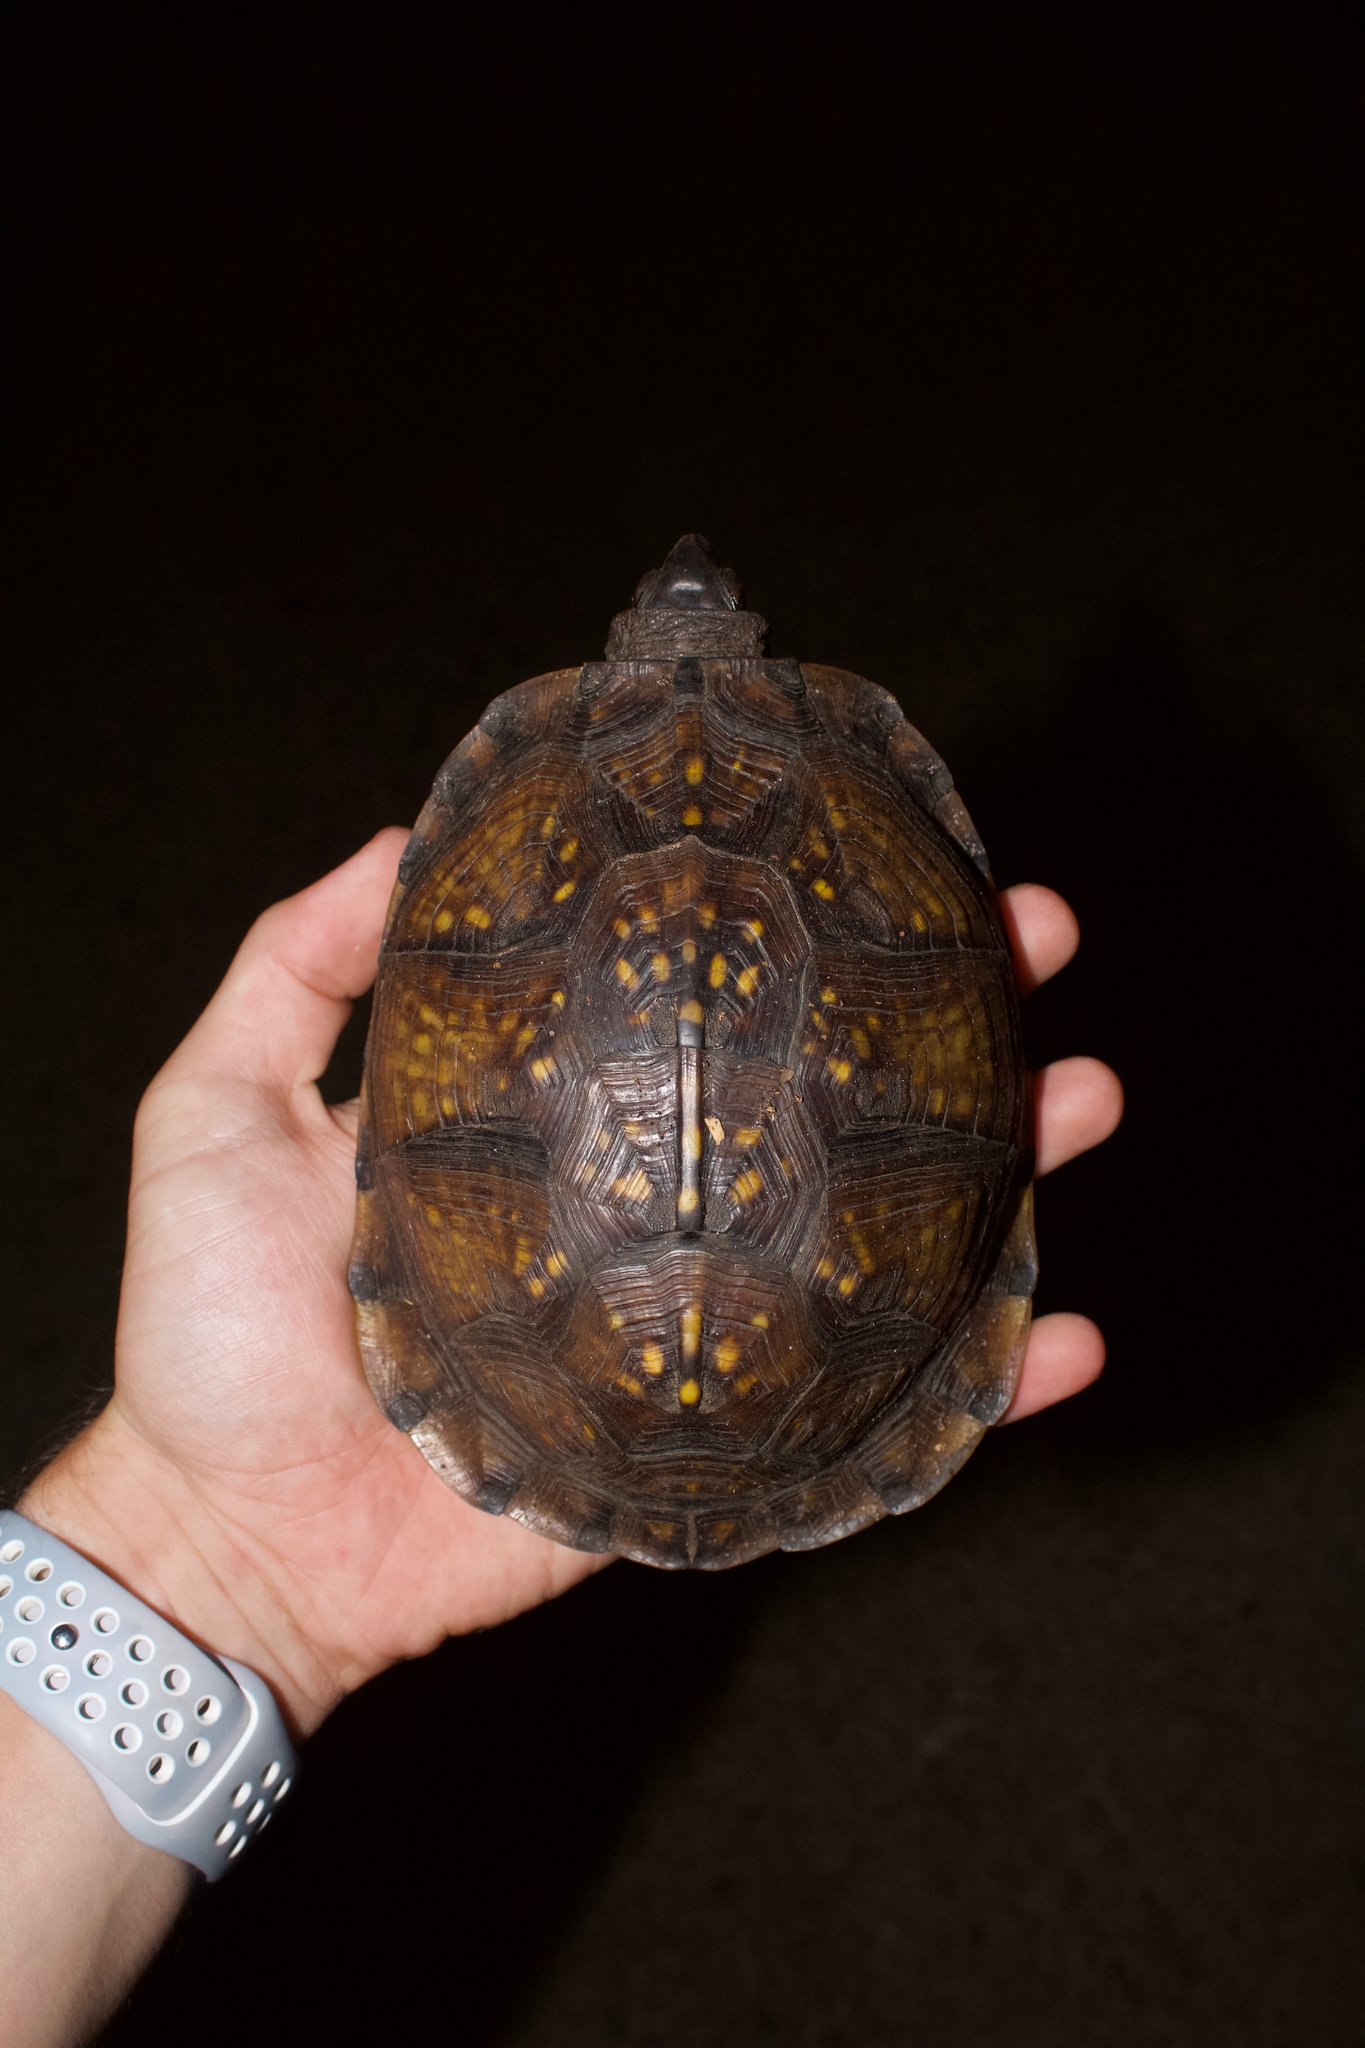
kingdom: Animalia
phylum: Chordata
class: Testudines
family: Emydidae
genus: Terrapene
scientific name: Terrapene carolina
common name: Common box turtle
